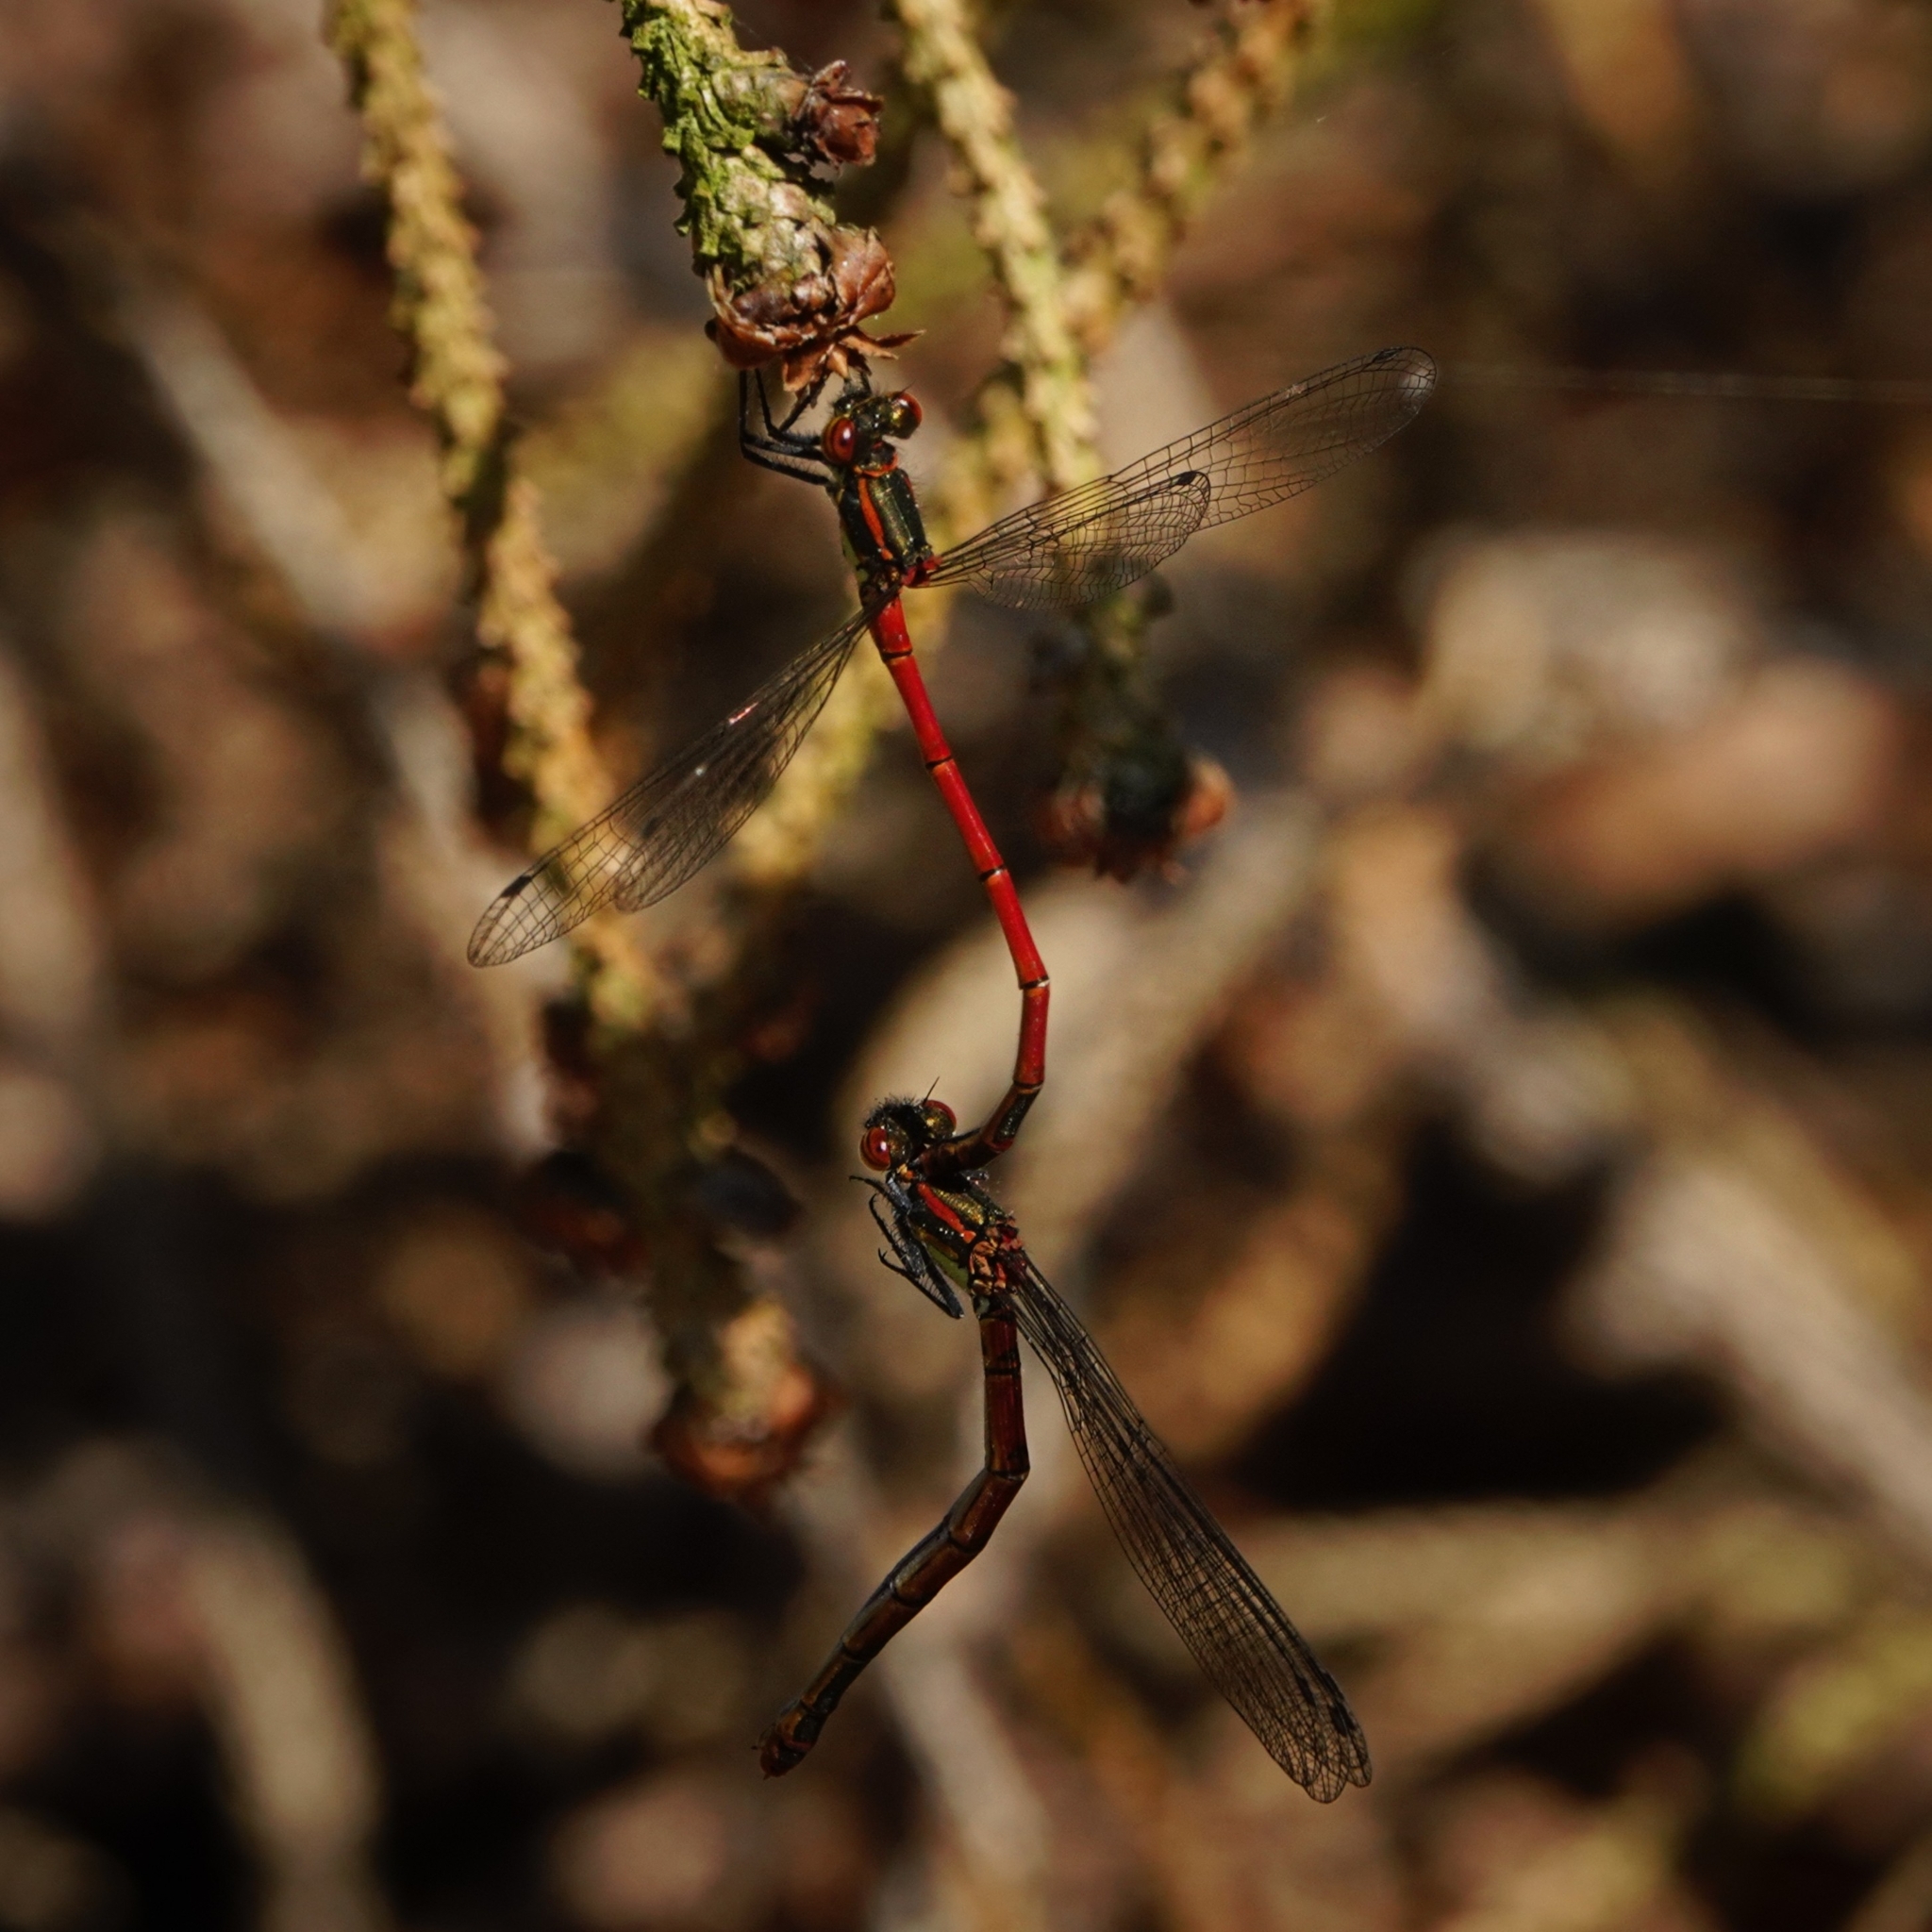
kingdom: Animalia
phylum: Arthropoda
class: Insecta
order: Odonata
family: Coenagrionidae
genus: Pyrrhosoma
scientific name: Pyrrhosoma nymphula
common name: Large red damsel
